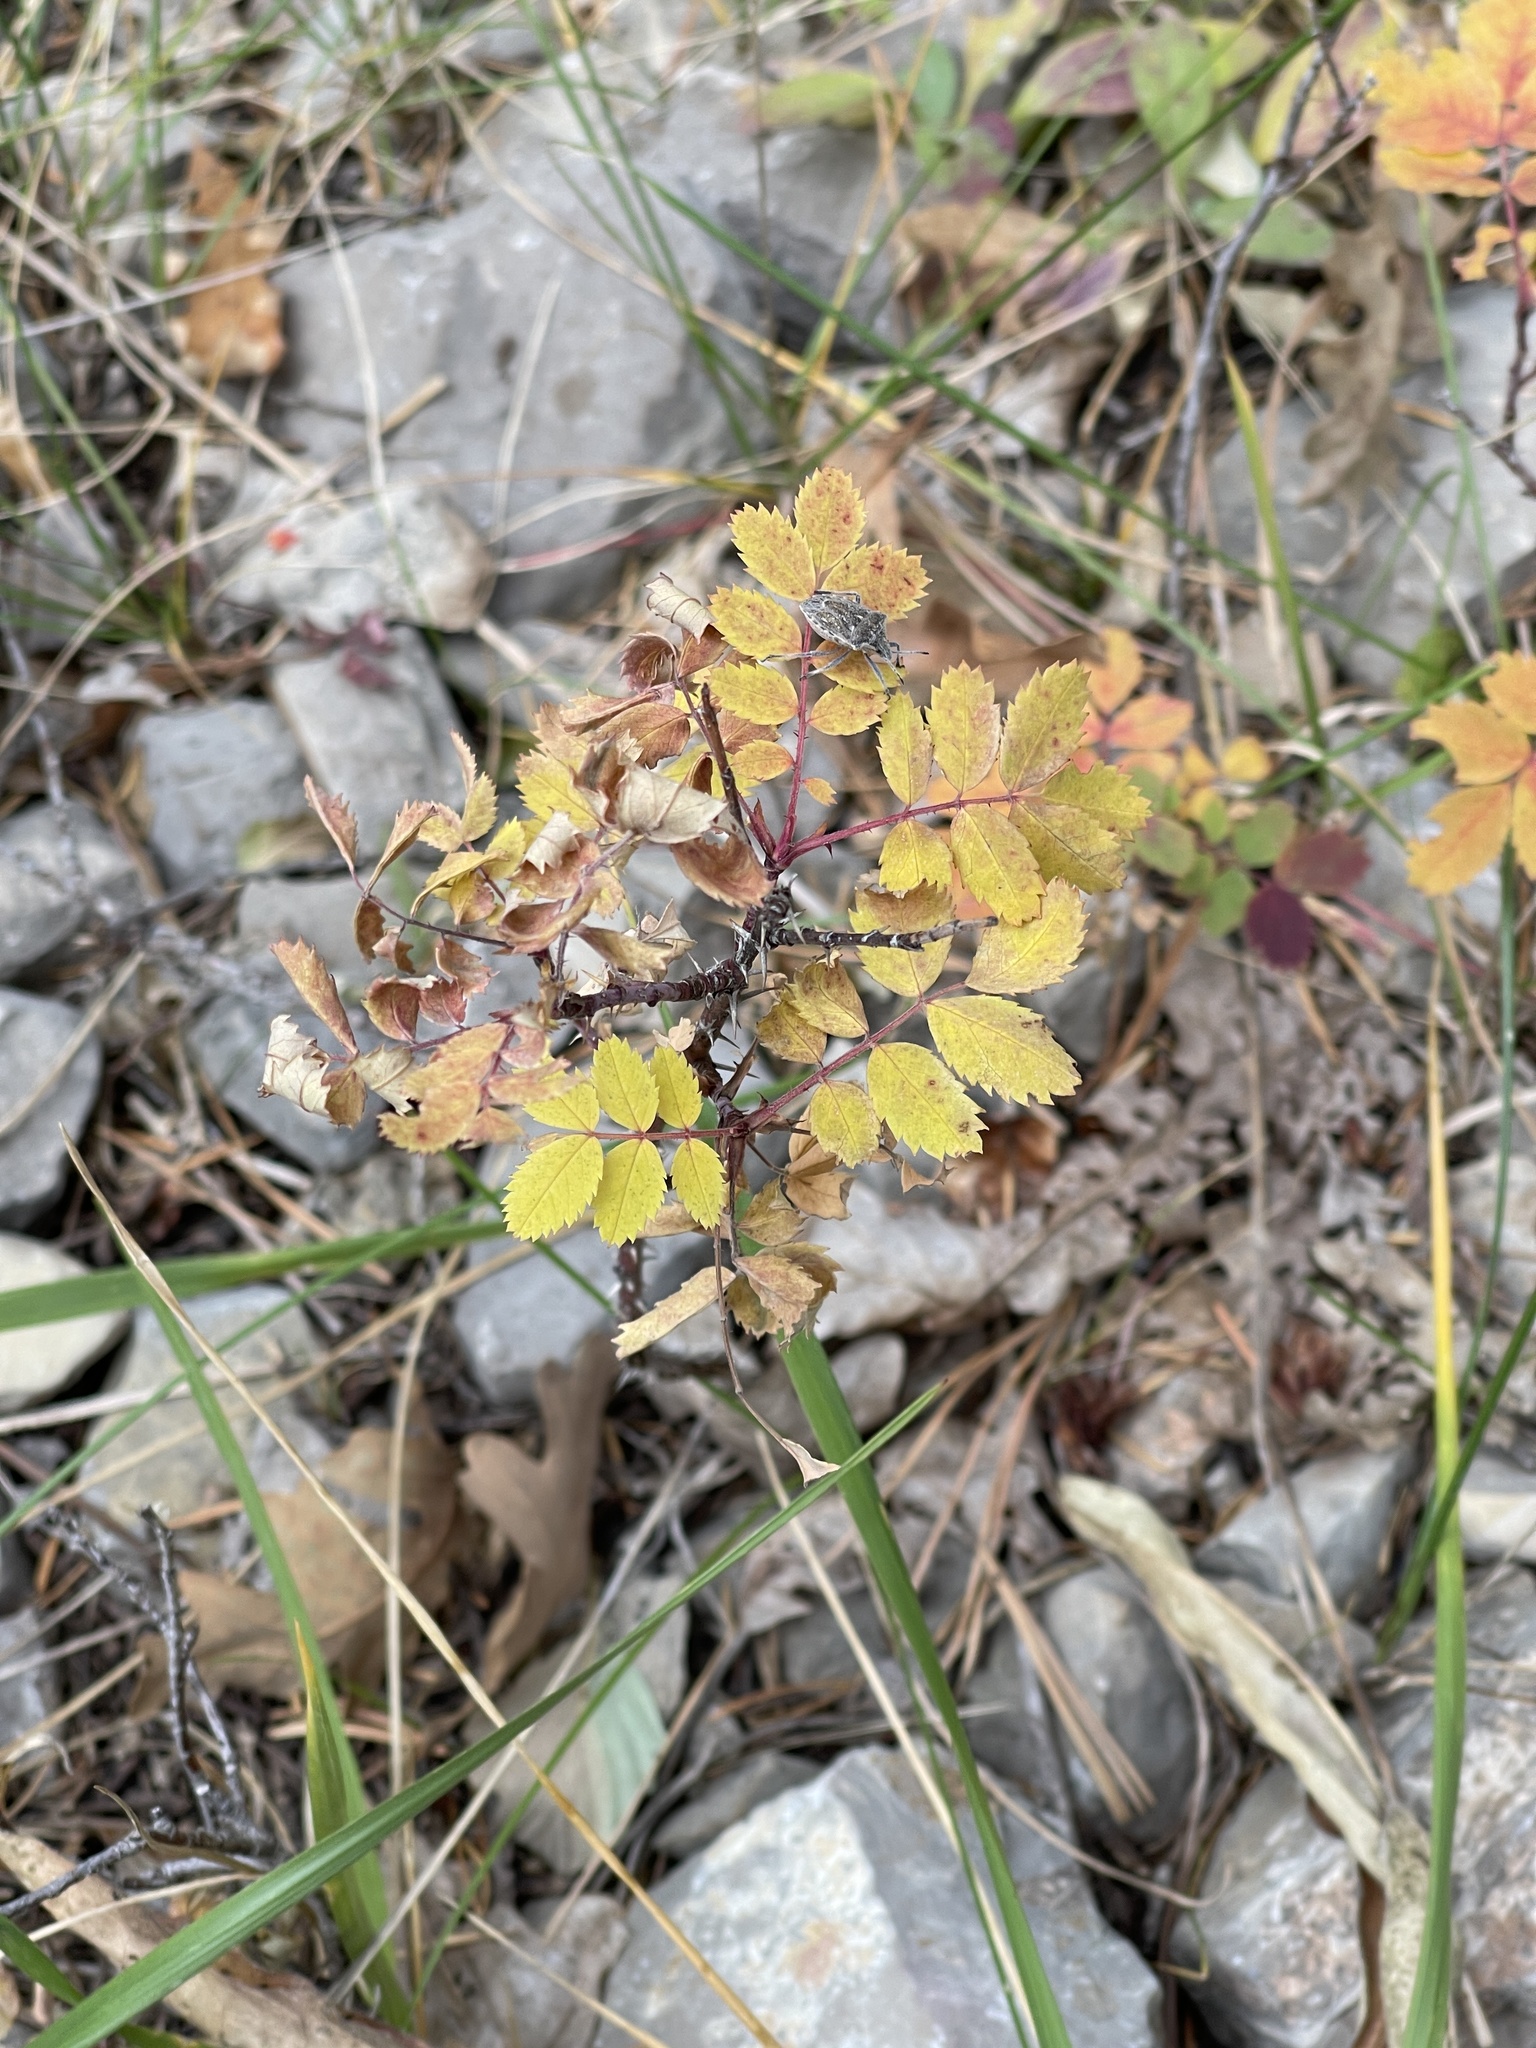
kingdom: Plantae
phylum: Tracheophyta
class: Magnoliopsida
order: Rosales
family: Rosaceae
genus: Rosa
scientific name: Rosa woodsii
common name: Woods's rose
